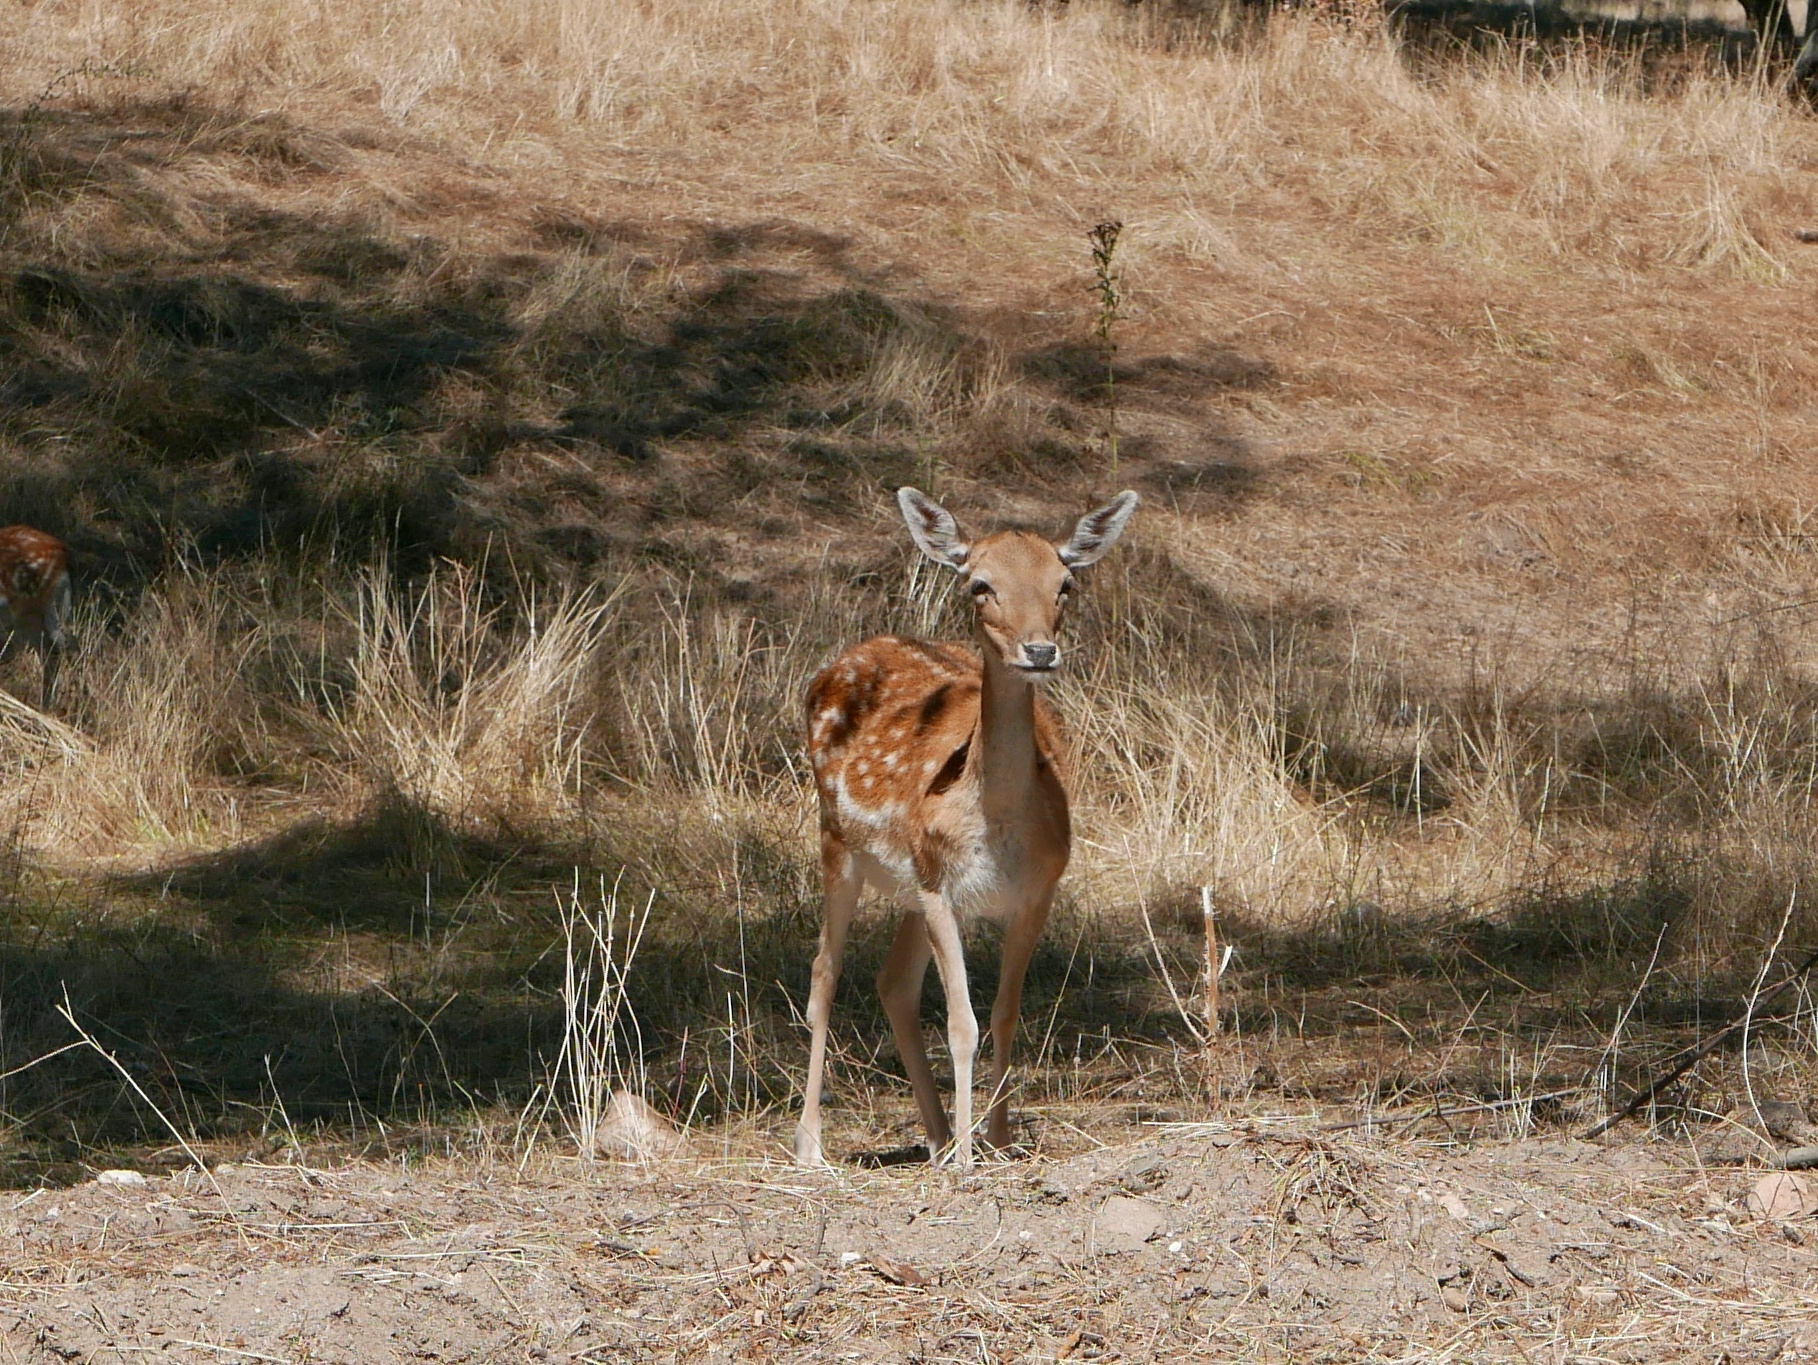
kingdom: Animalia
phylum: Chordata
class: Mammalia
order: Artiodactyla
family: Cervidae
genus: Dama
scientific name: Dama dama
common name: Fallow deer
